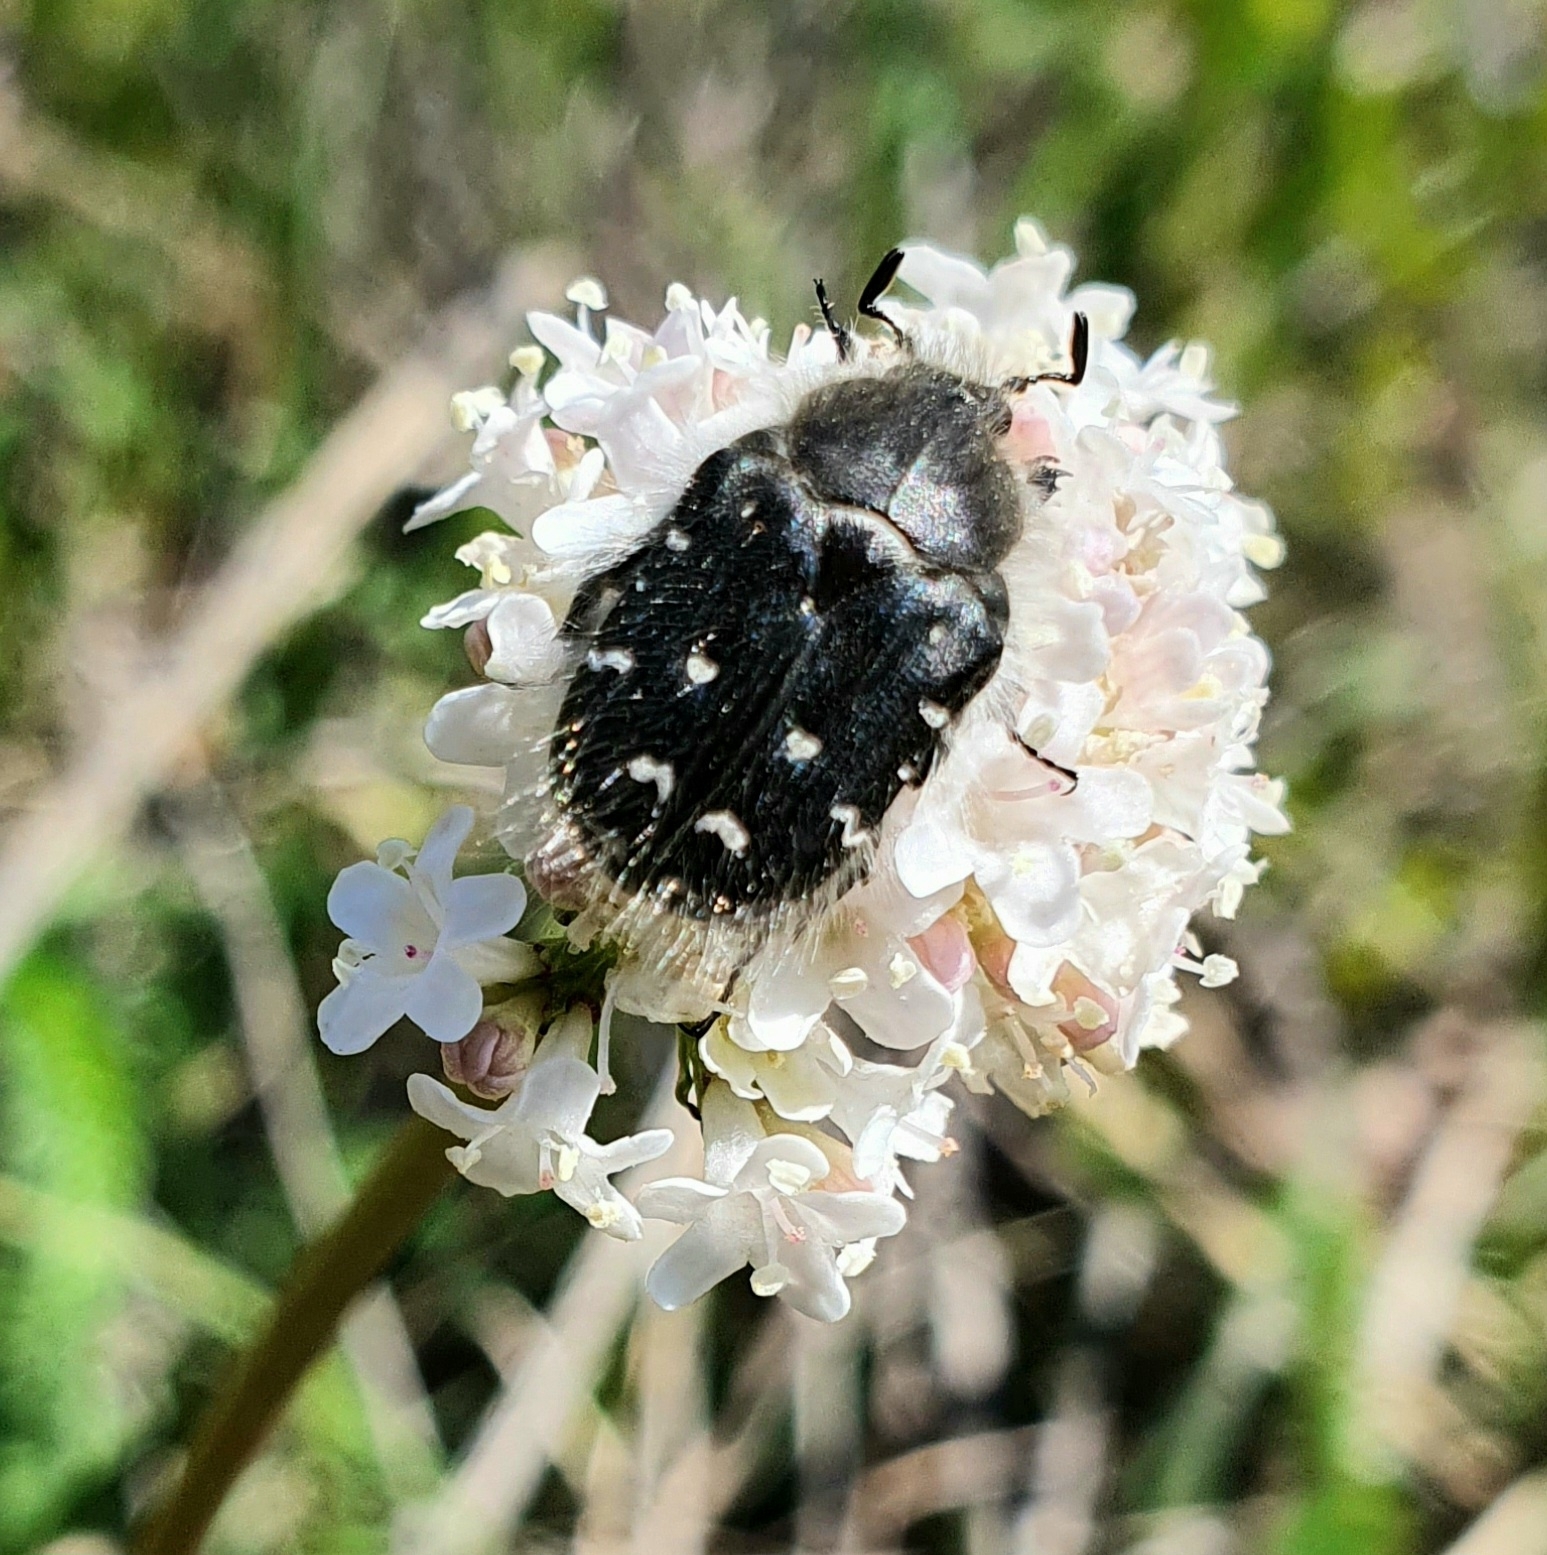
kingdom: Animalia
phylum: Arthropoda
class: Insecta
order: Coleoptera
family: Scarabaeidae
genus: Tropinota
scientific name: Tropinota hirta
